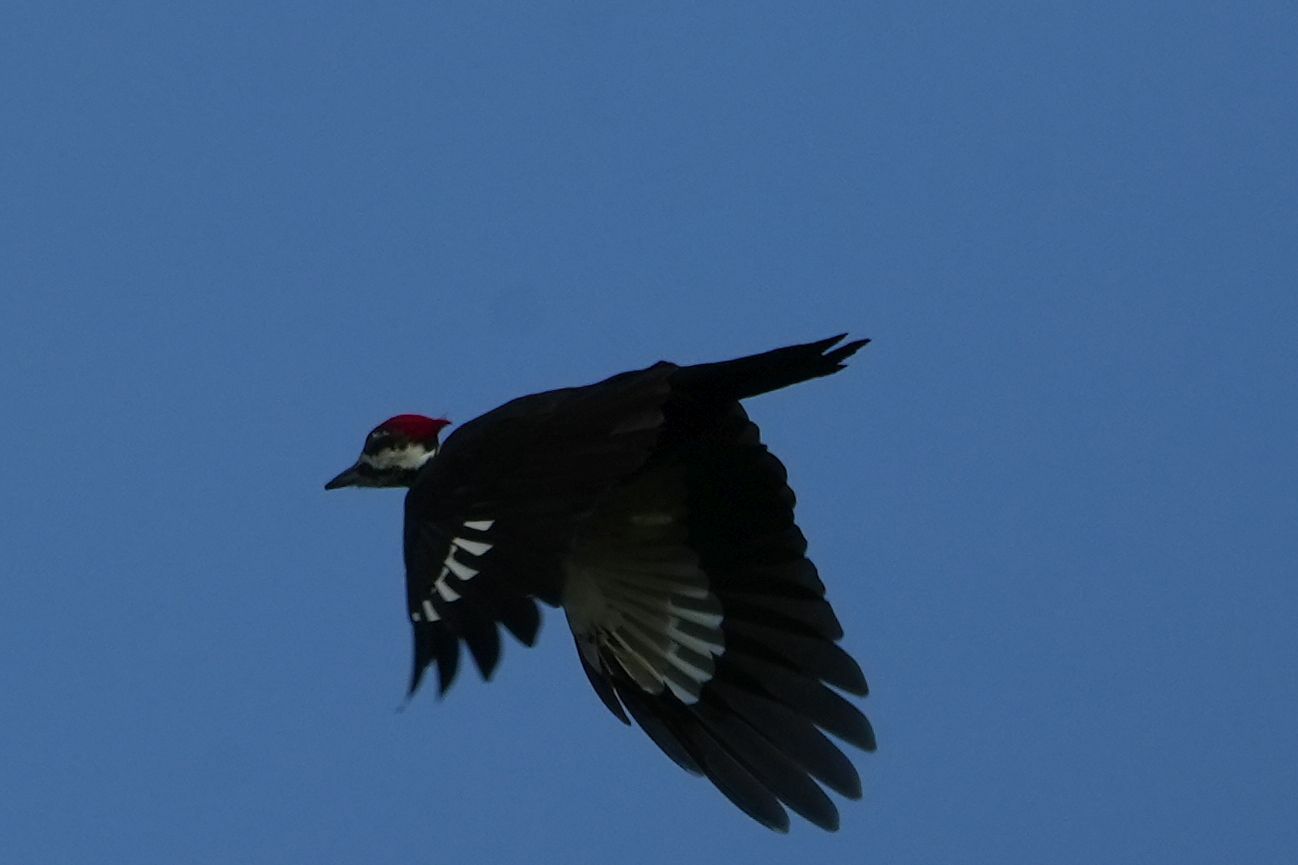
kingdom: Animalia
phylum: Chordata
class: Aves
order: Piciformes
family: Picidae
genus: Dryocopus
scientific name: Dryocopus pileatus
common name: Pileated woodpecker
